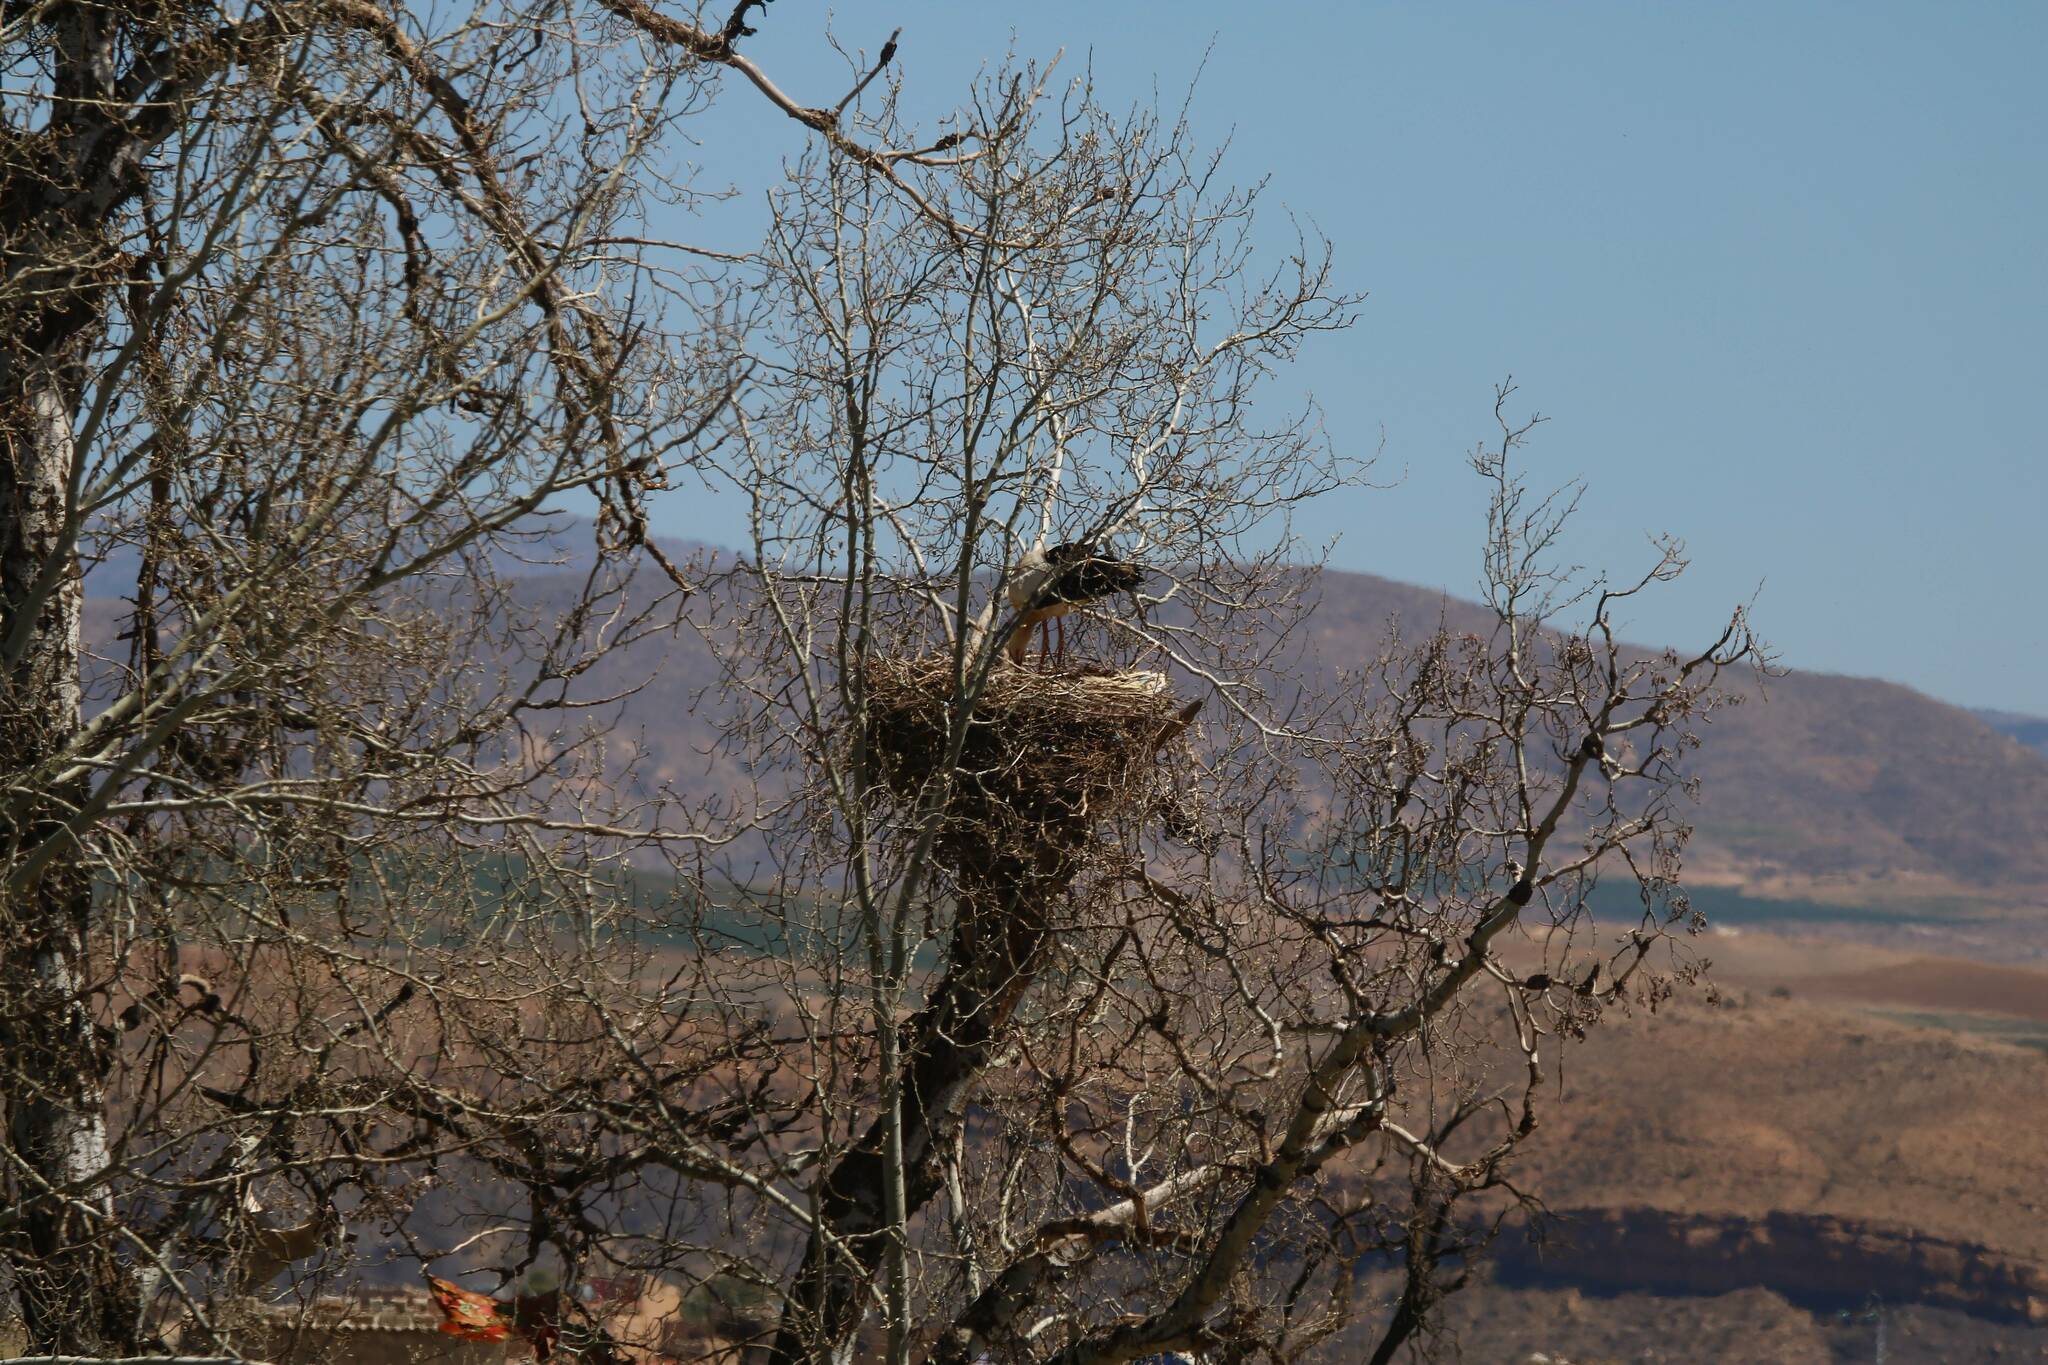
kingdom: Animalia
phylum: Chordata
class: Aves
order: Ciconiiformes
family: Ciconiidae
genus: Ciconia
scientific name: Ciconia ciconia
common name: White stork
